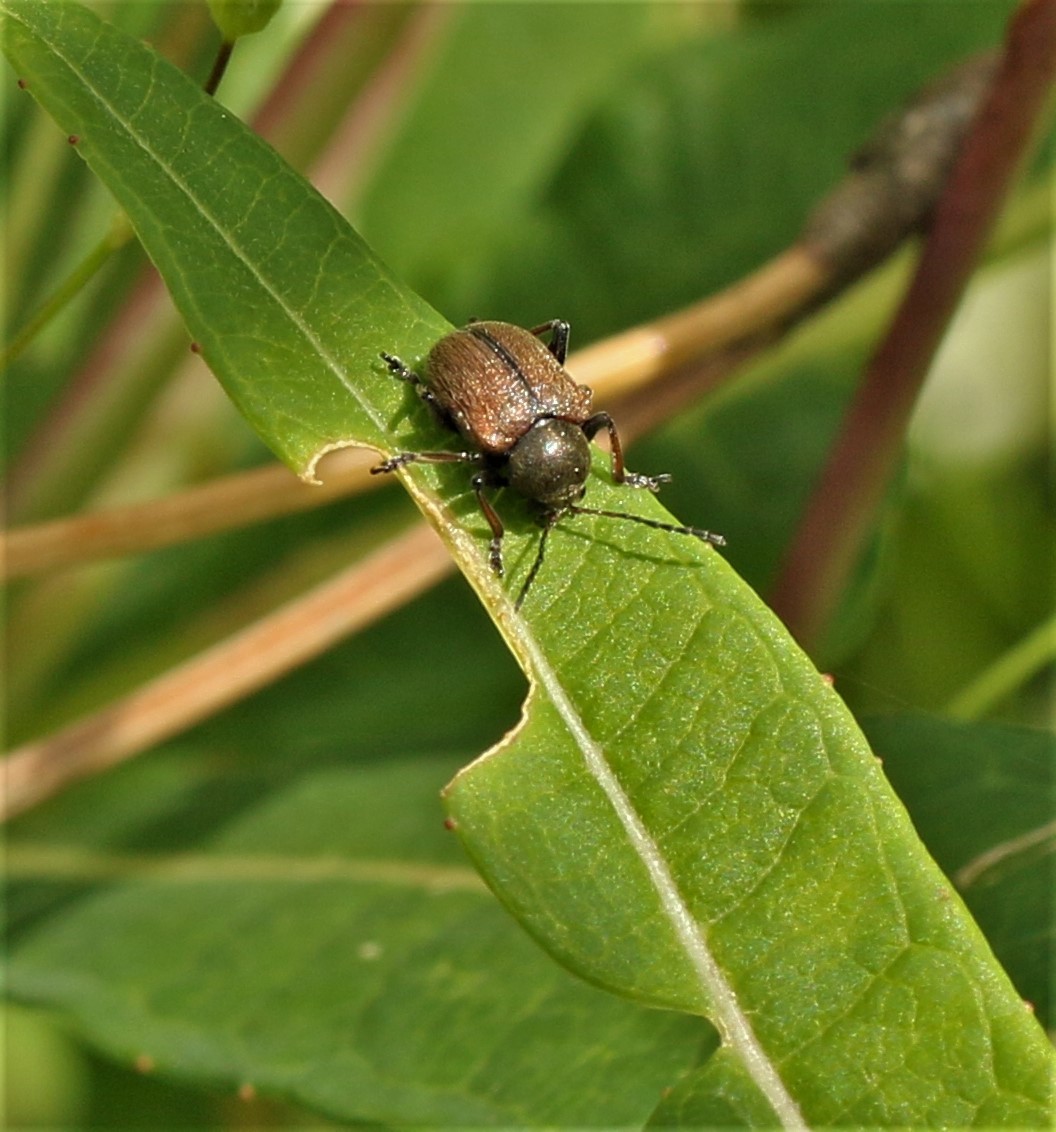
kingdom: Animalia
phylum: Arthropoda
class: Insecta
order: Coleoptera
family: Chrysomelidae
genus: Bromius
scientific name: Bromius obscurus
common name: Western grape rootworm
